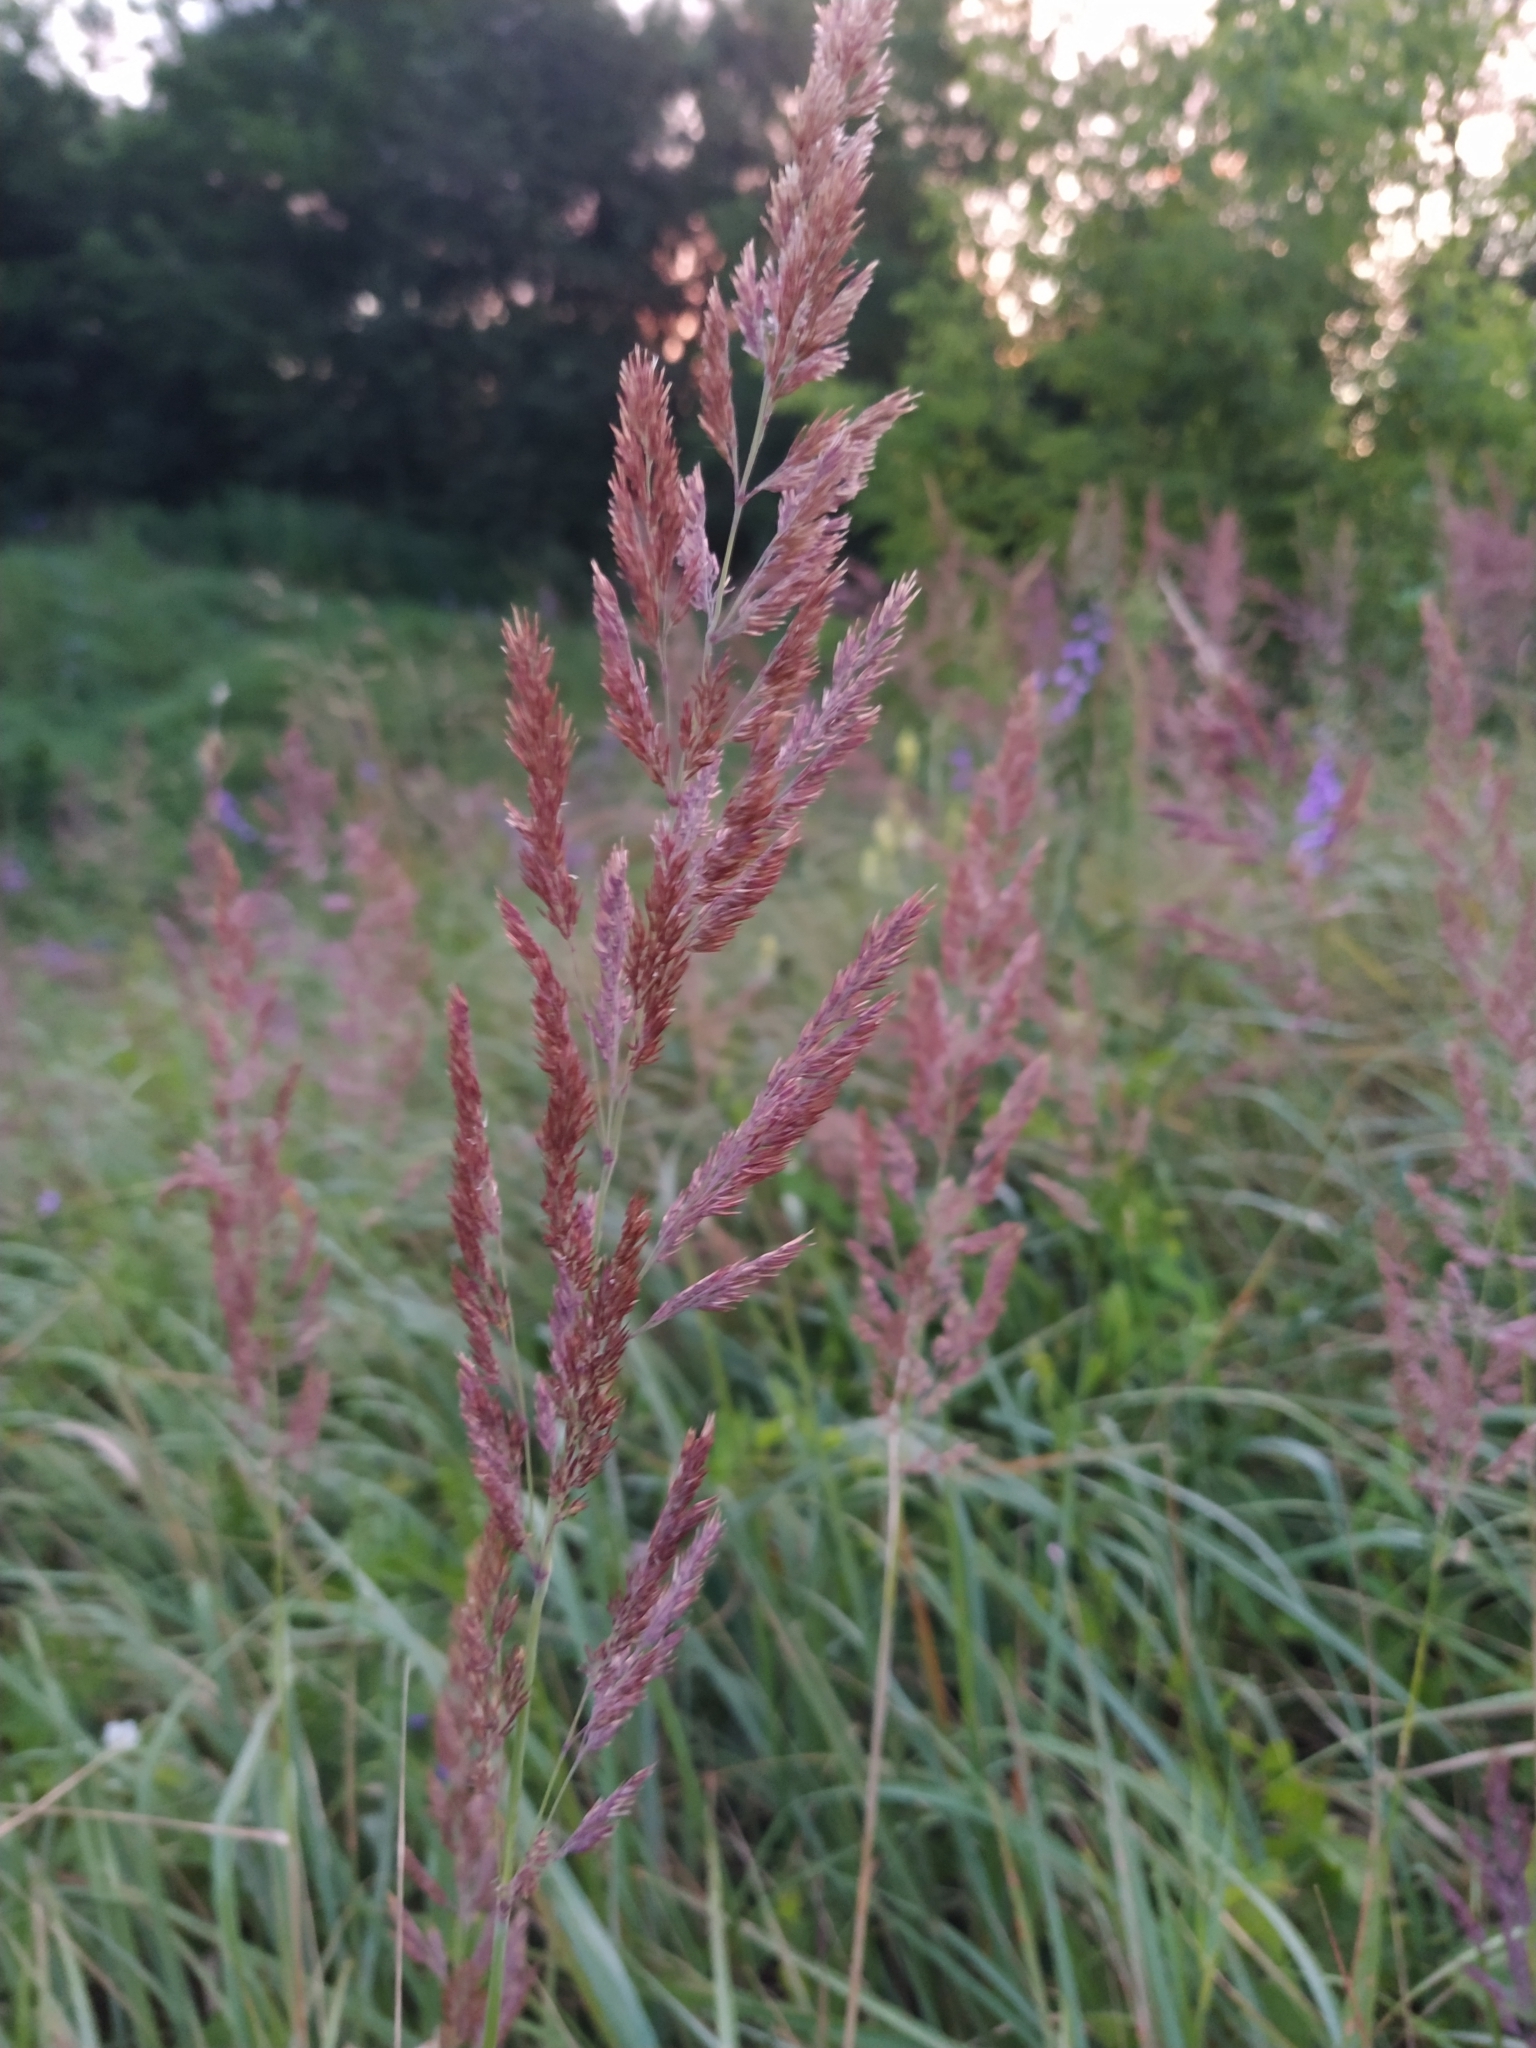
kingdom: Plantae
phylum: Tracheophyta
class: Liliopsida
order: Poales
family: Poaceae
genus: Calamagrostis
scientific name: Calamagrostis epigejos
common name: Wood small-reed
